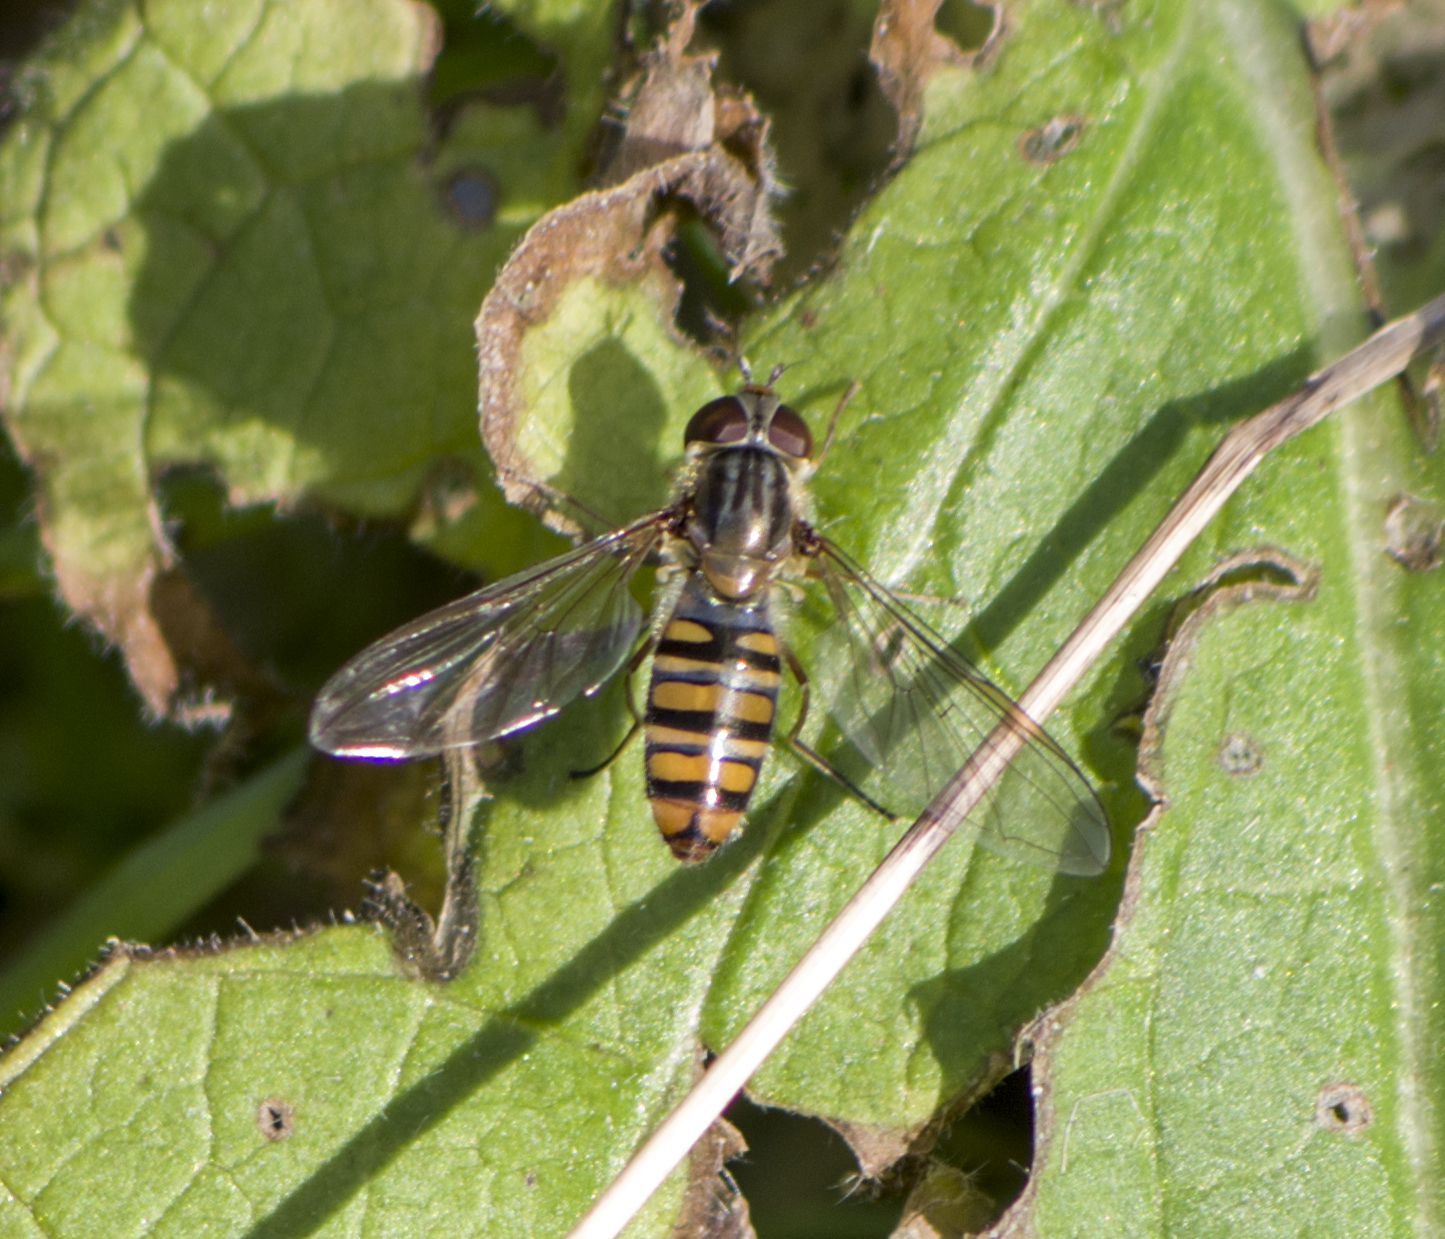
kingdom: Animalia
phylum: Arthropoda
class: Insecta
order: Diptera
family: Syrphidae
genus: Episyrphus
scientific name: Episyrphus balteatus
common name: Marmalade hoverfly
